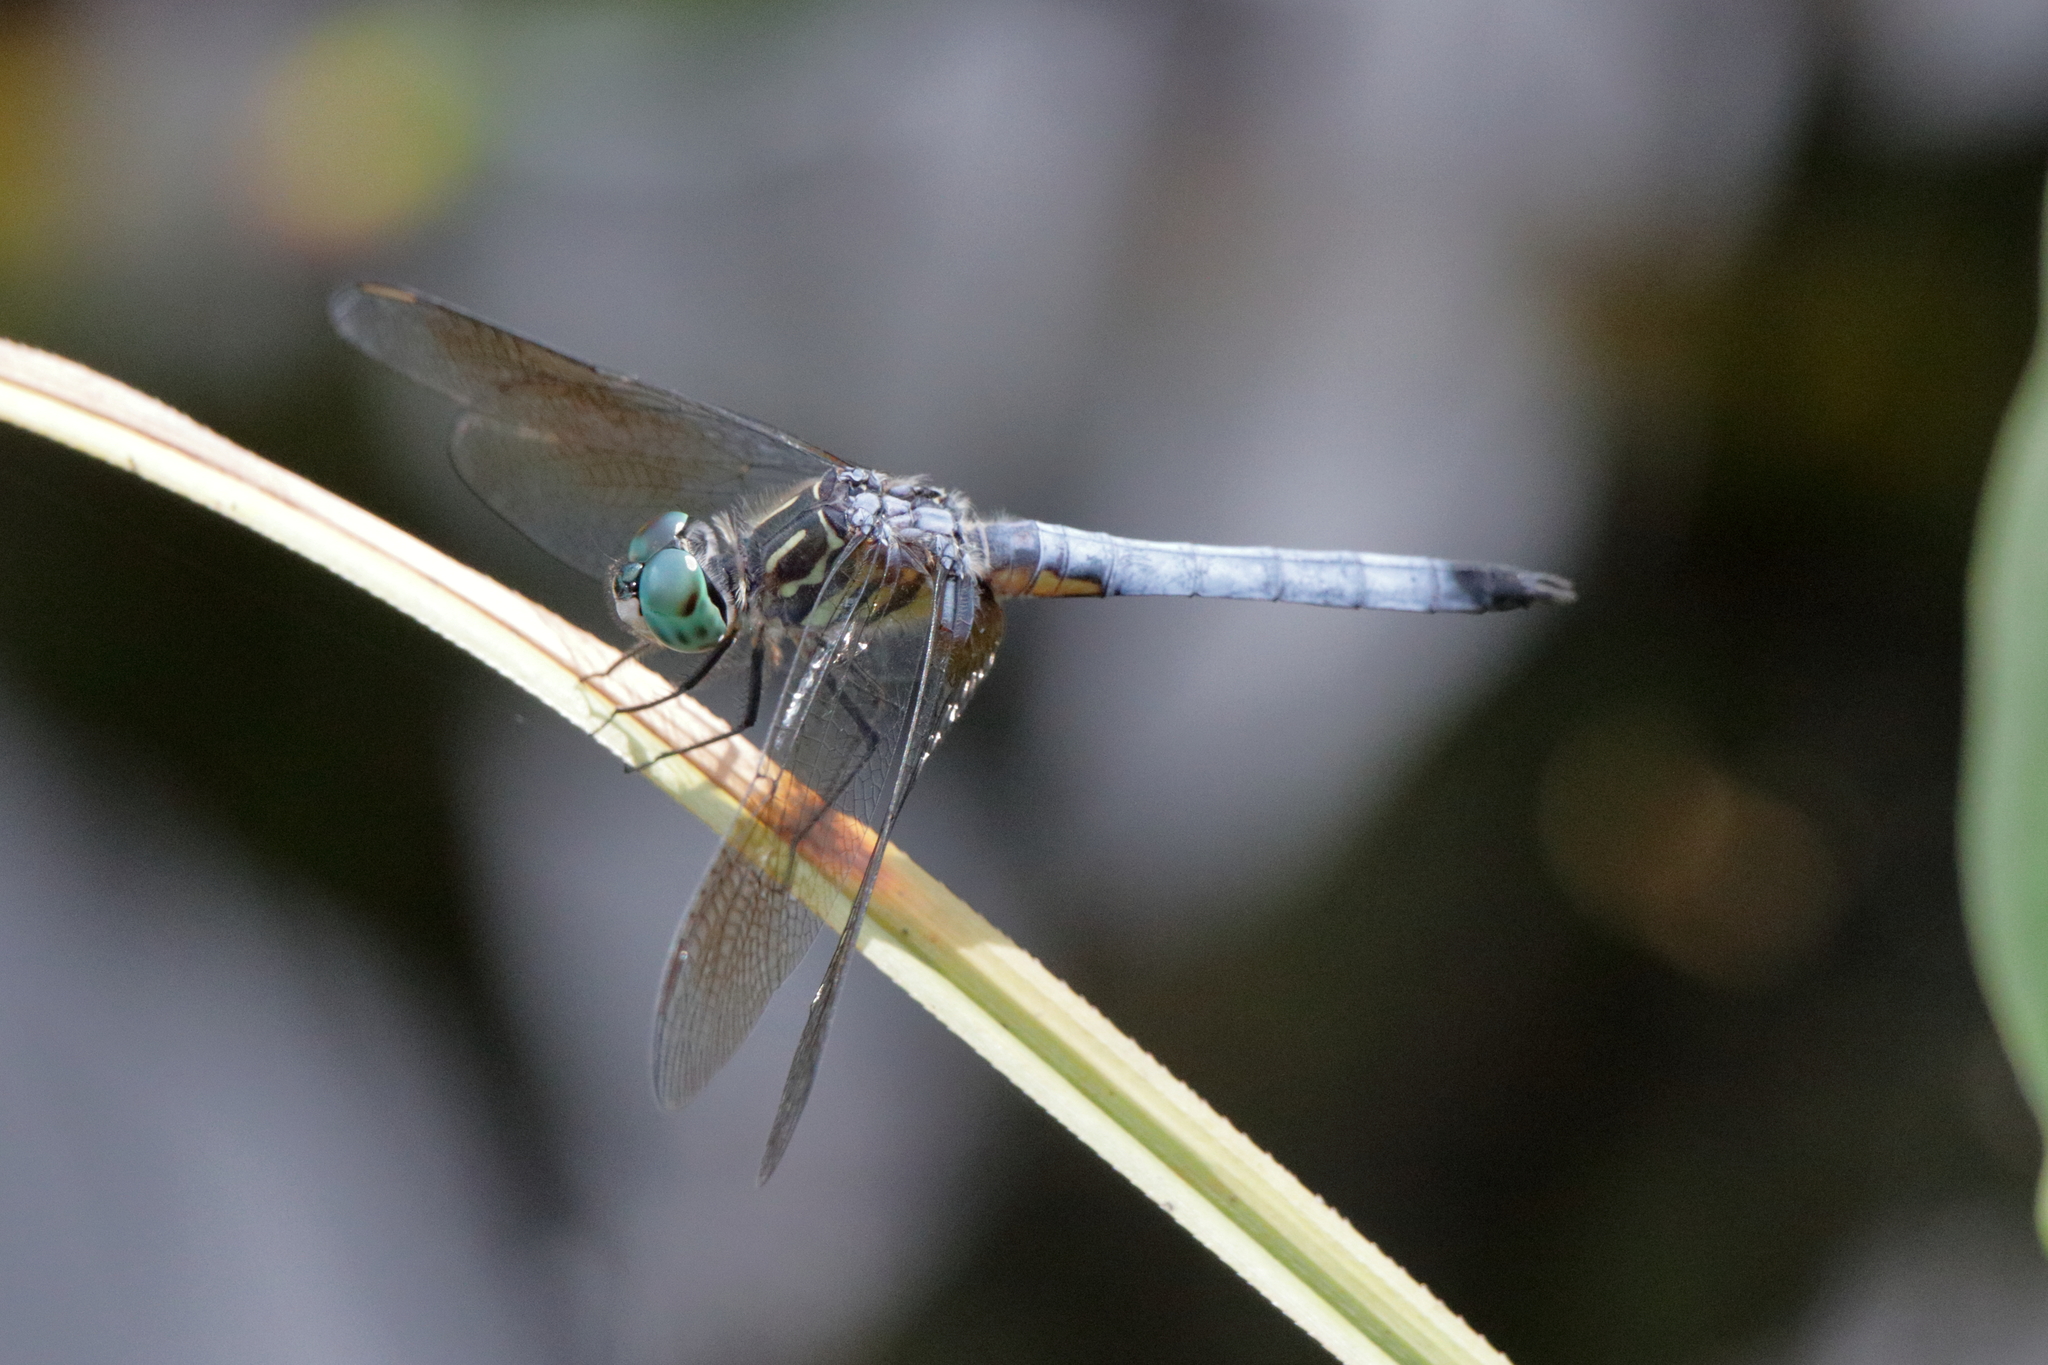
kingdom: Animalia
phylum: Arthropoda
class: Insecta
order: Odonata
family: Libellulidae
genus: Pachydiplax
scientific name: Pachydiplax longipennis
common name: Blue dasher
